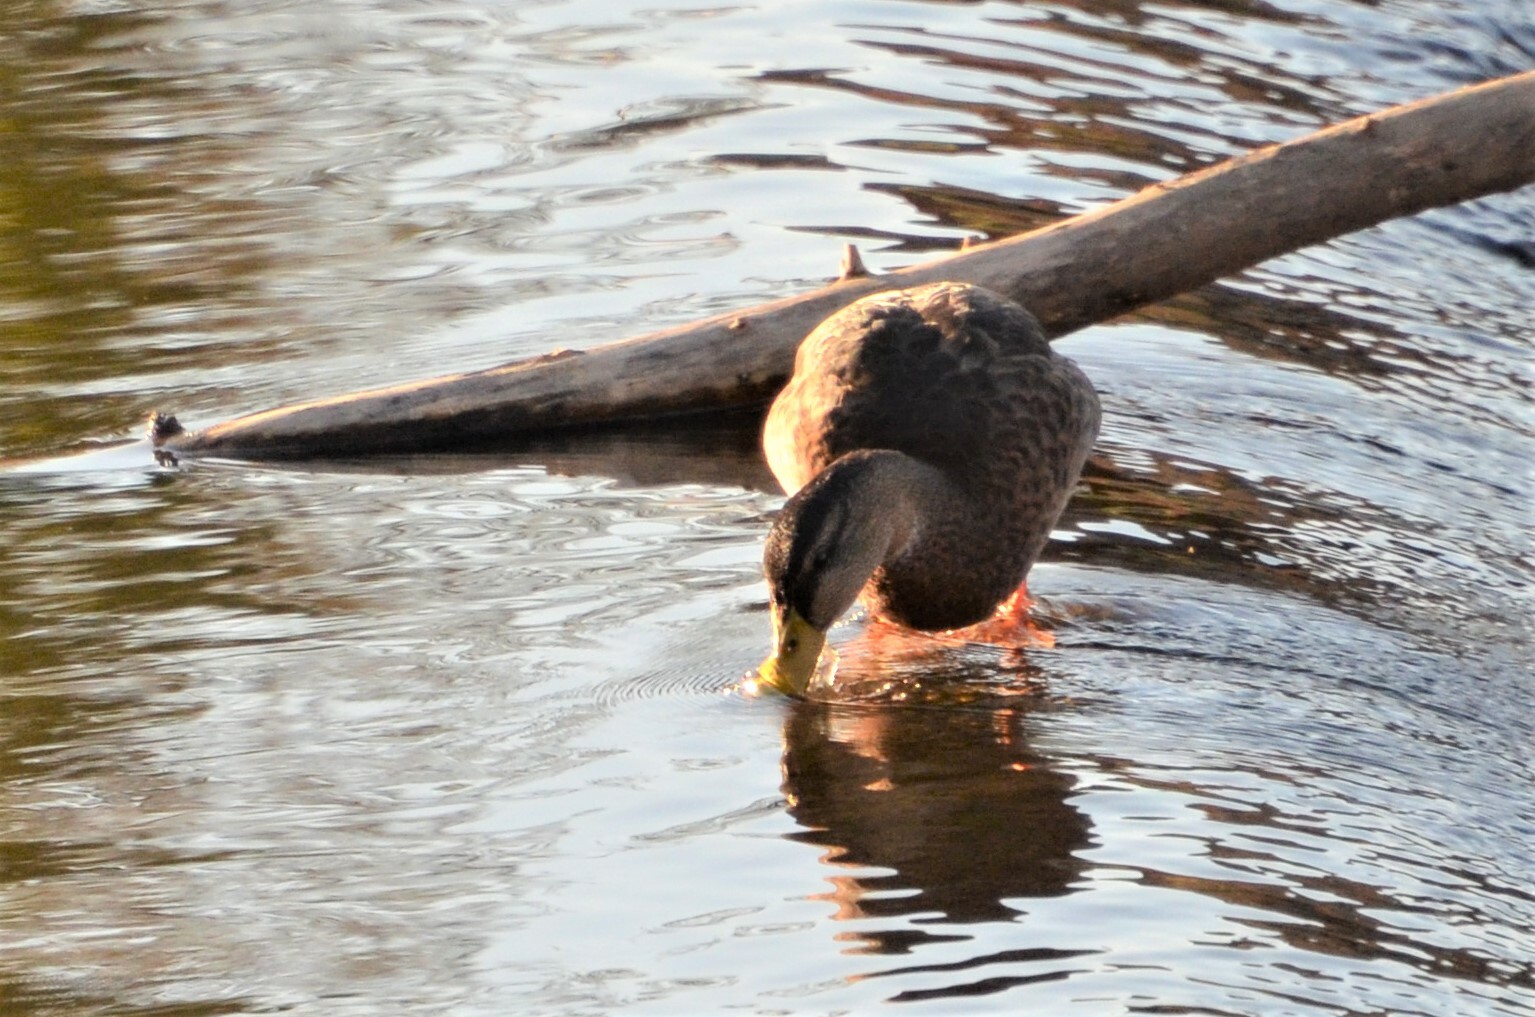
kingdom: Animalia
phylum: Chordata
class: Aves
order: Anseriformes
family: Anatidae
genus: Anas
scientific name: Anas platyrhynchos
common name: Mallard
